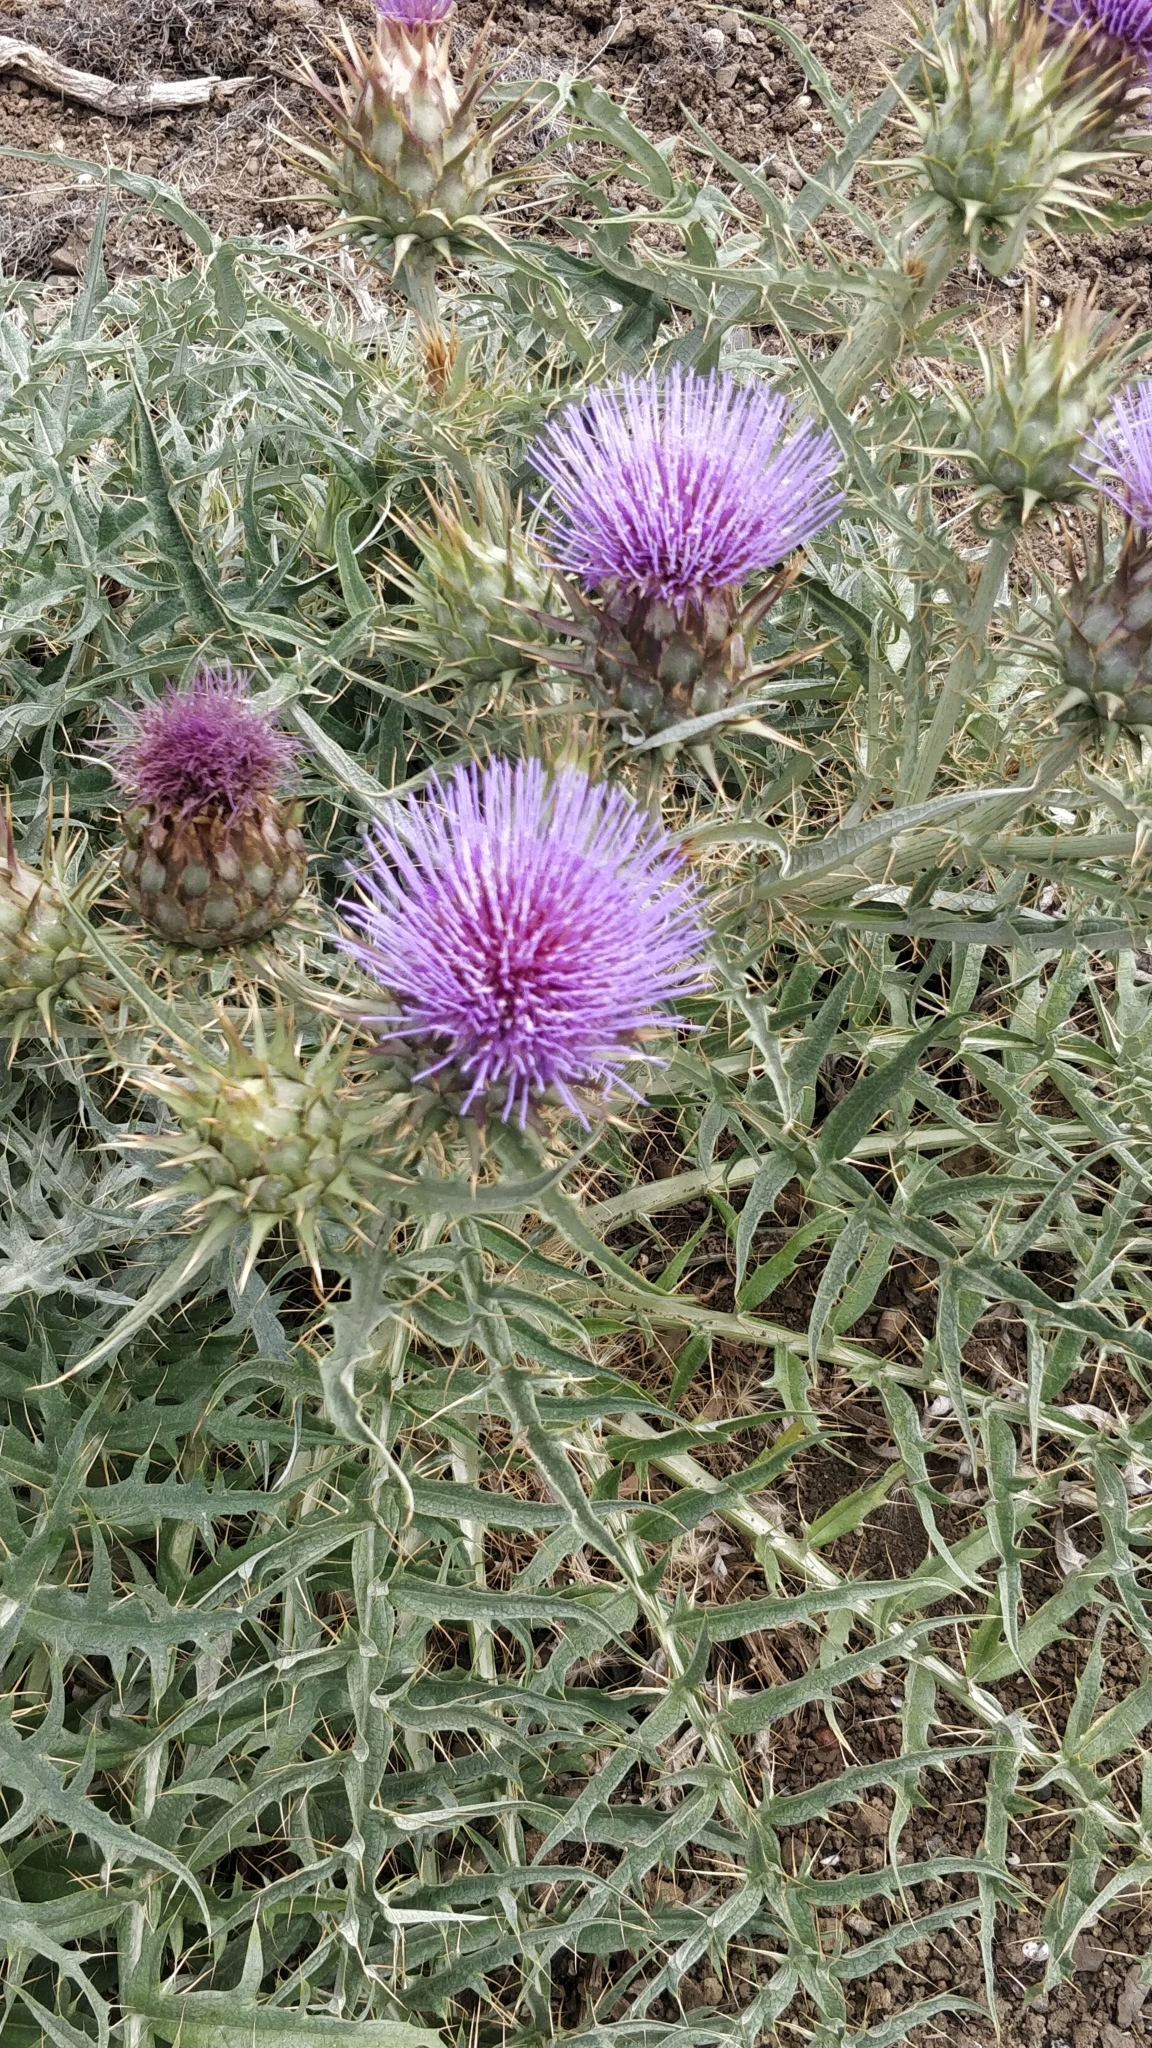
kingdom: Plantae
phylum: Tracheophyta
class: Magnoliopsida
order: Asterales
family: Asteraceae
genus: Cynara
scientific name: Cynara cardunculus
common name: Globe artichoke
